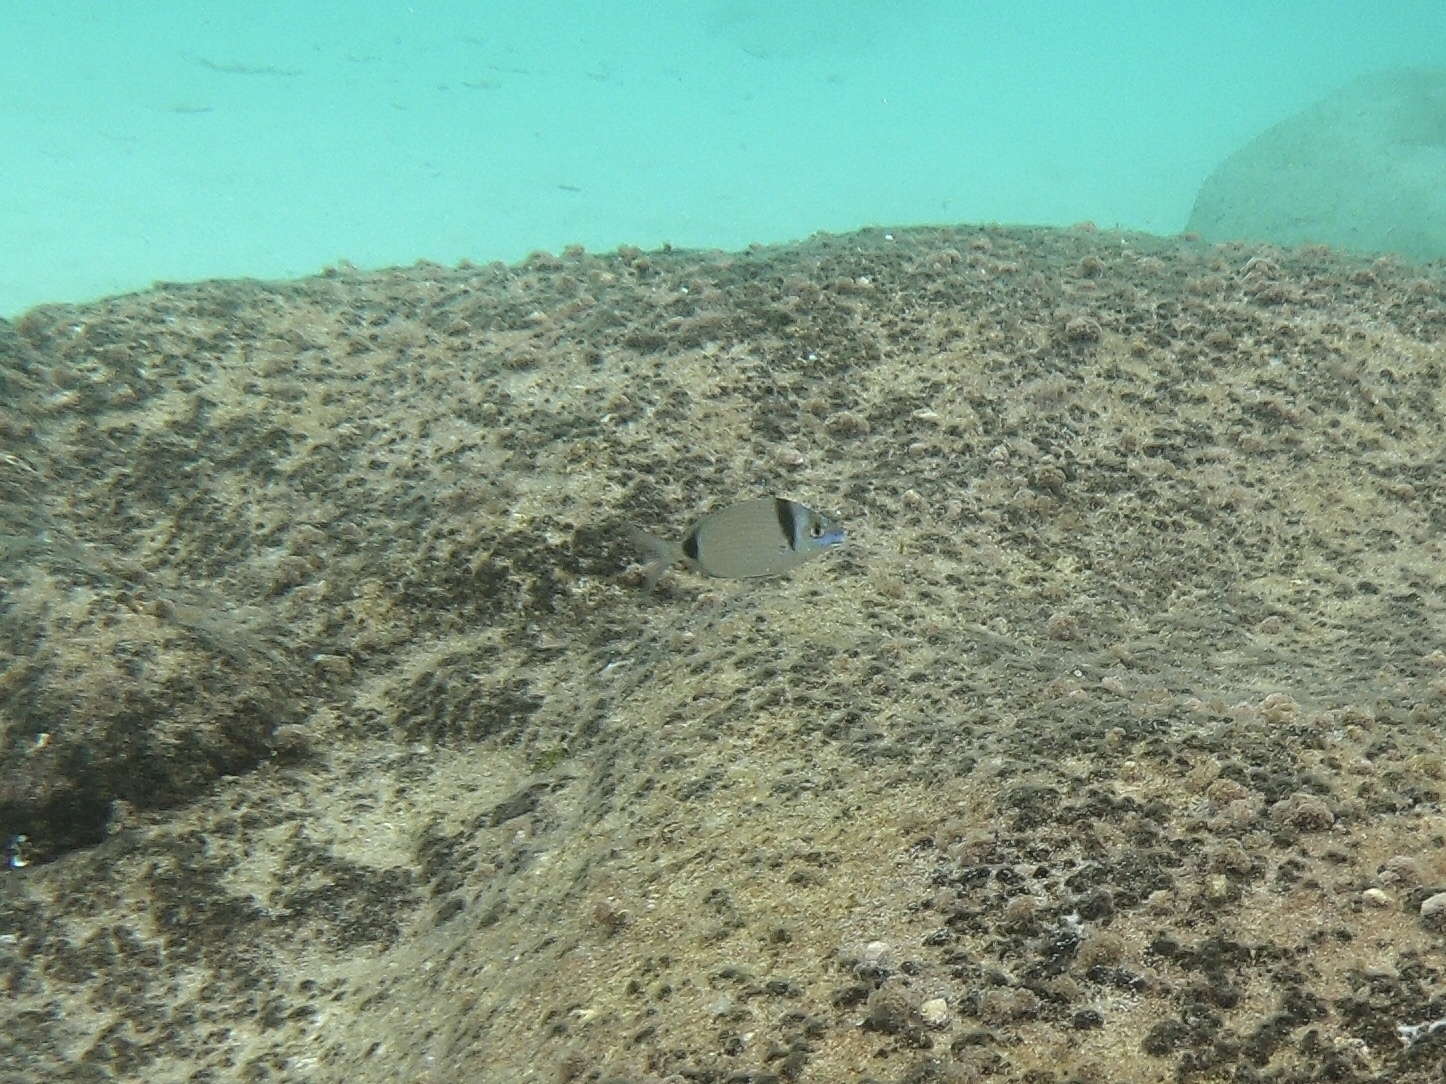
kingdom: Animalia
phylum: Chordata
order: Perciformes
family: Sparidae
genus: Diplodus
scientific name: Diplodus vulgaris
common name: Common two-banded seabream
